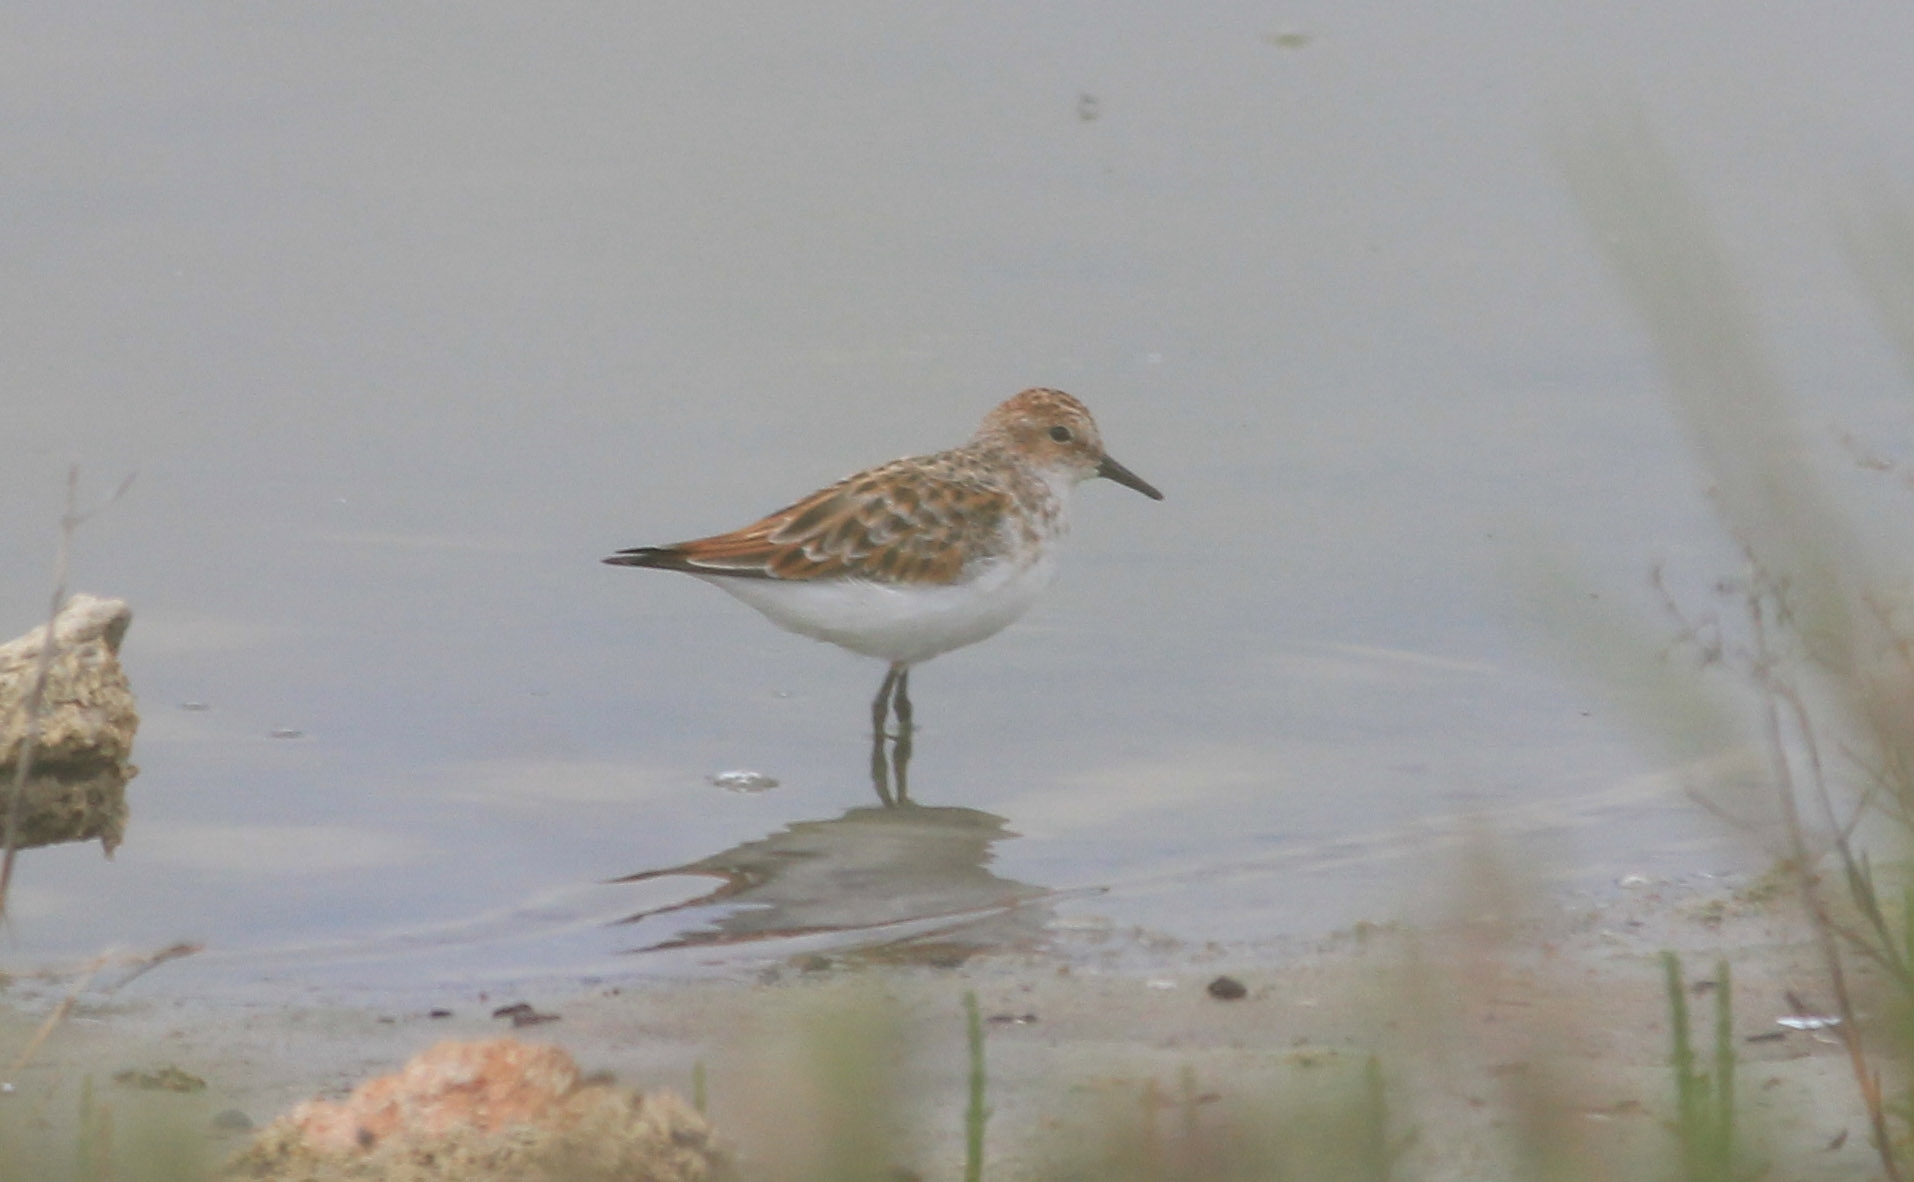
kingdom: Animalia
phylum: Chordata
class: Aves
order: Charadriiformes
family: Scolopacidae
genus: Calidris
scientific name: Calidris minuta
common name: Little stint
